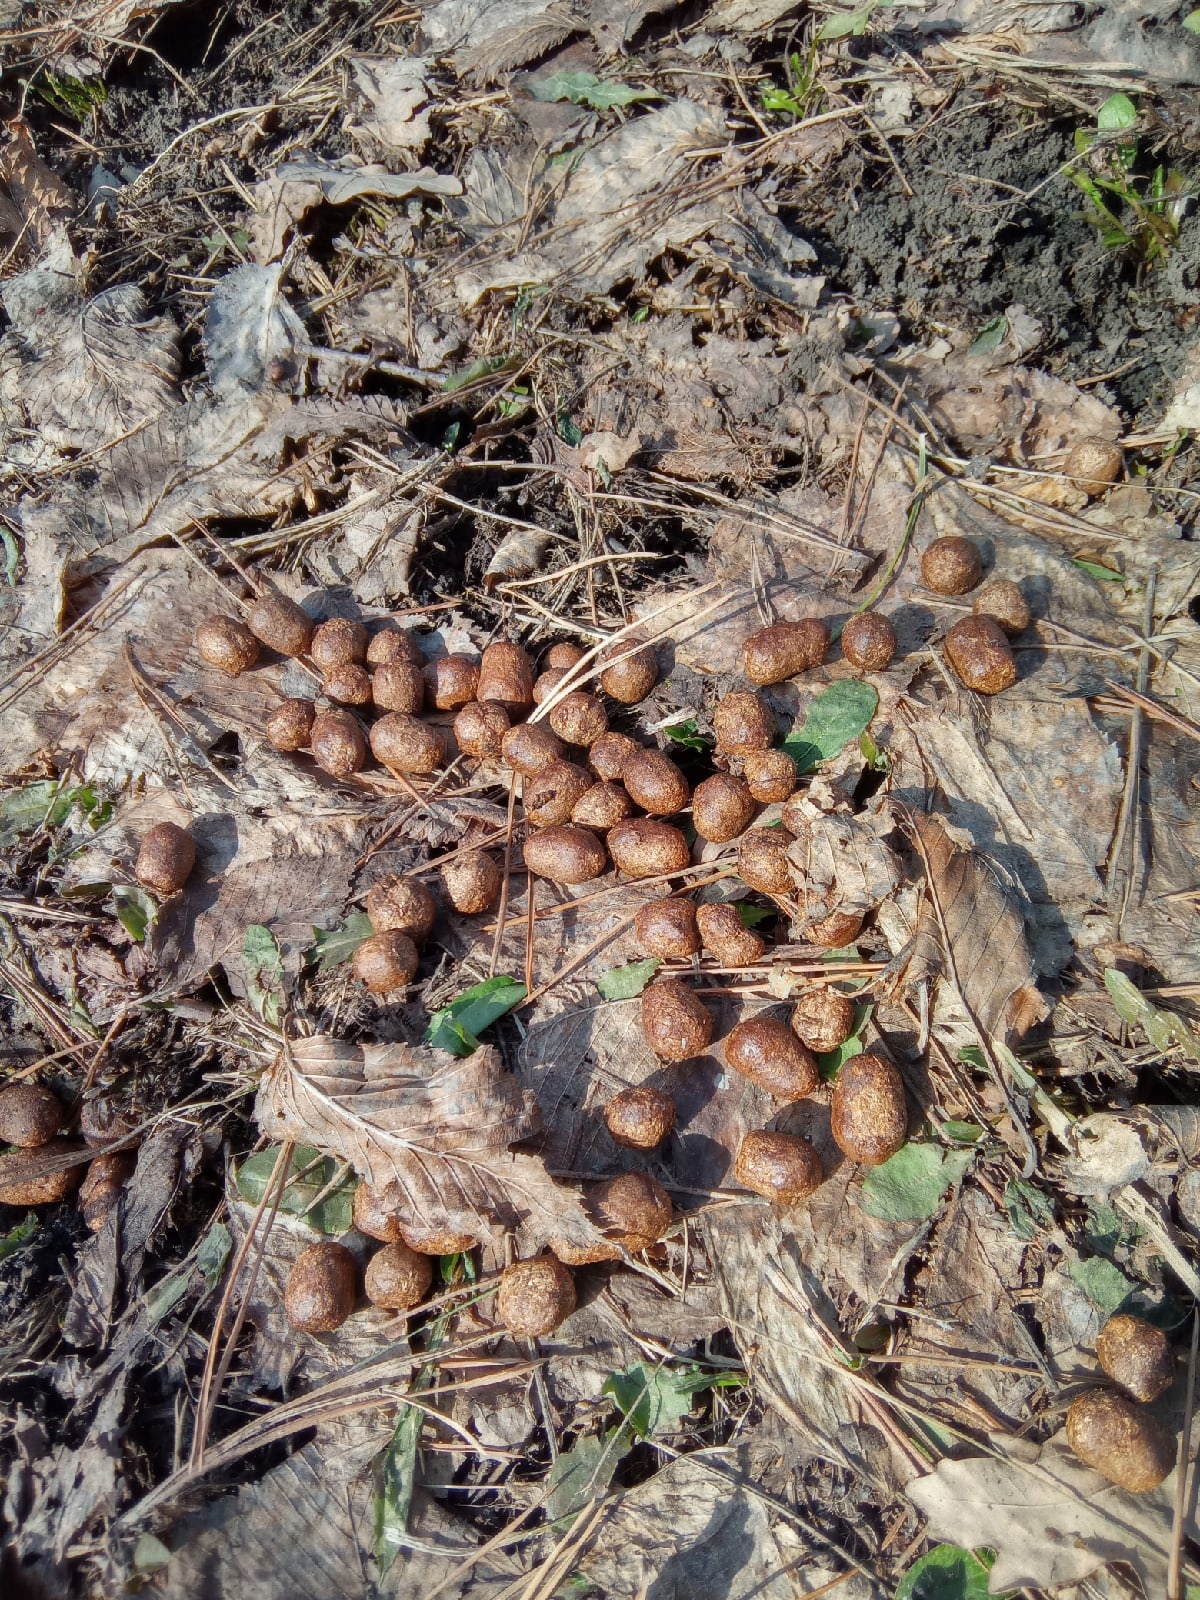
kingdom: Animalia
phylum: Chordata
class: Mammalia
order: Artiodactyla
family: Cervidae
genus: Capreolus
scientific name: Capreolus pygargus
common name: Siberian roe
